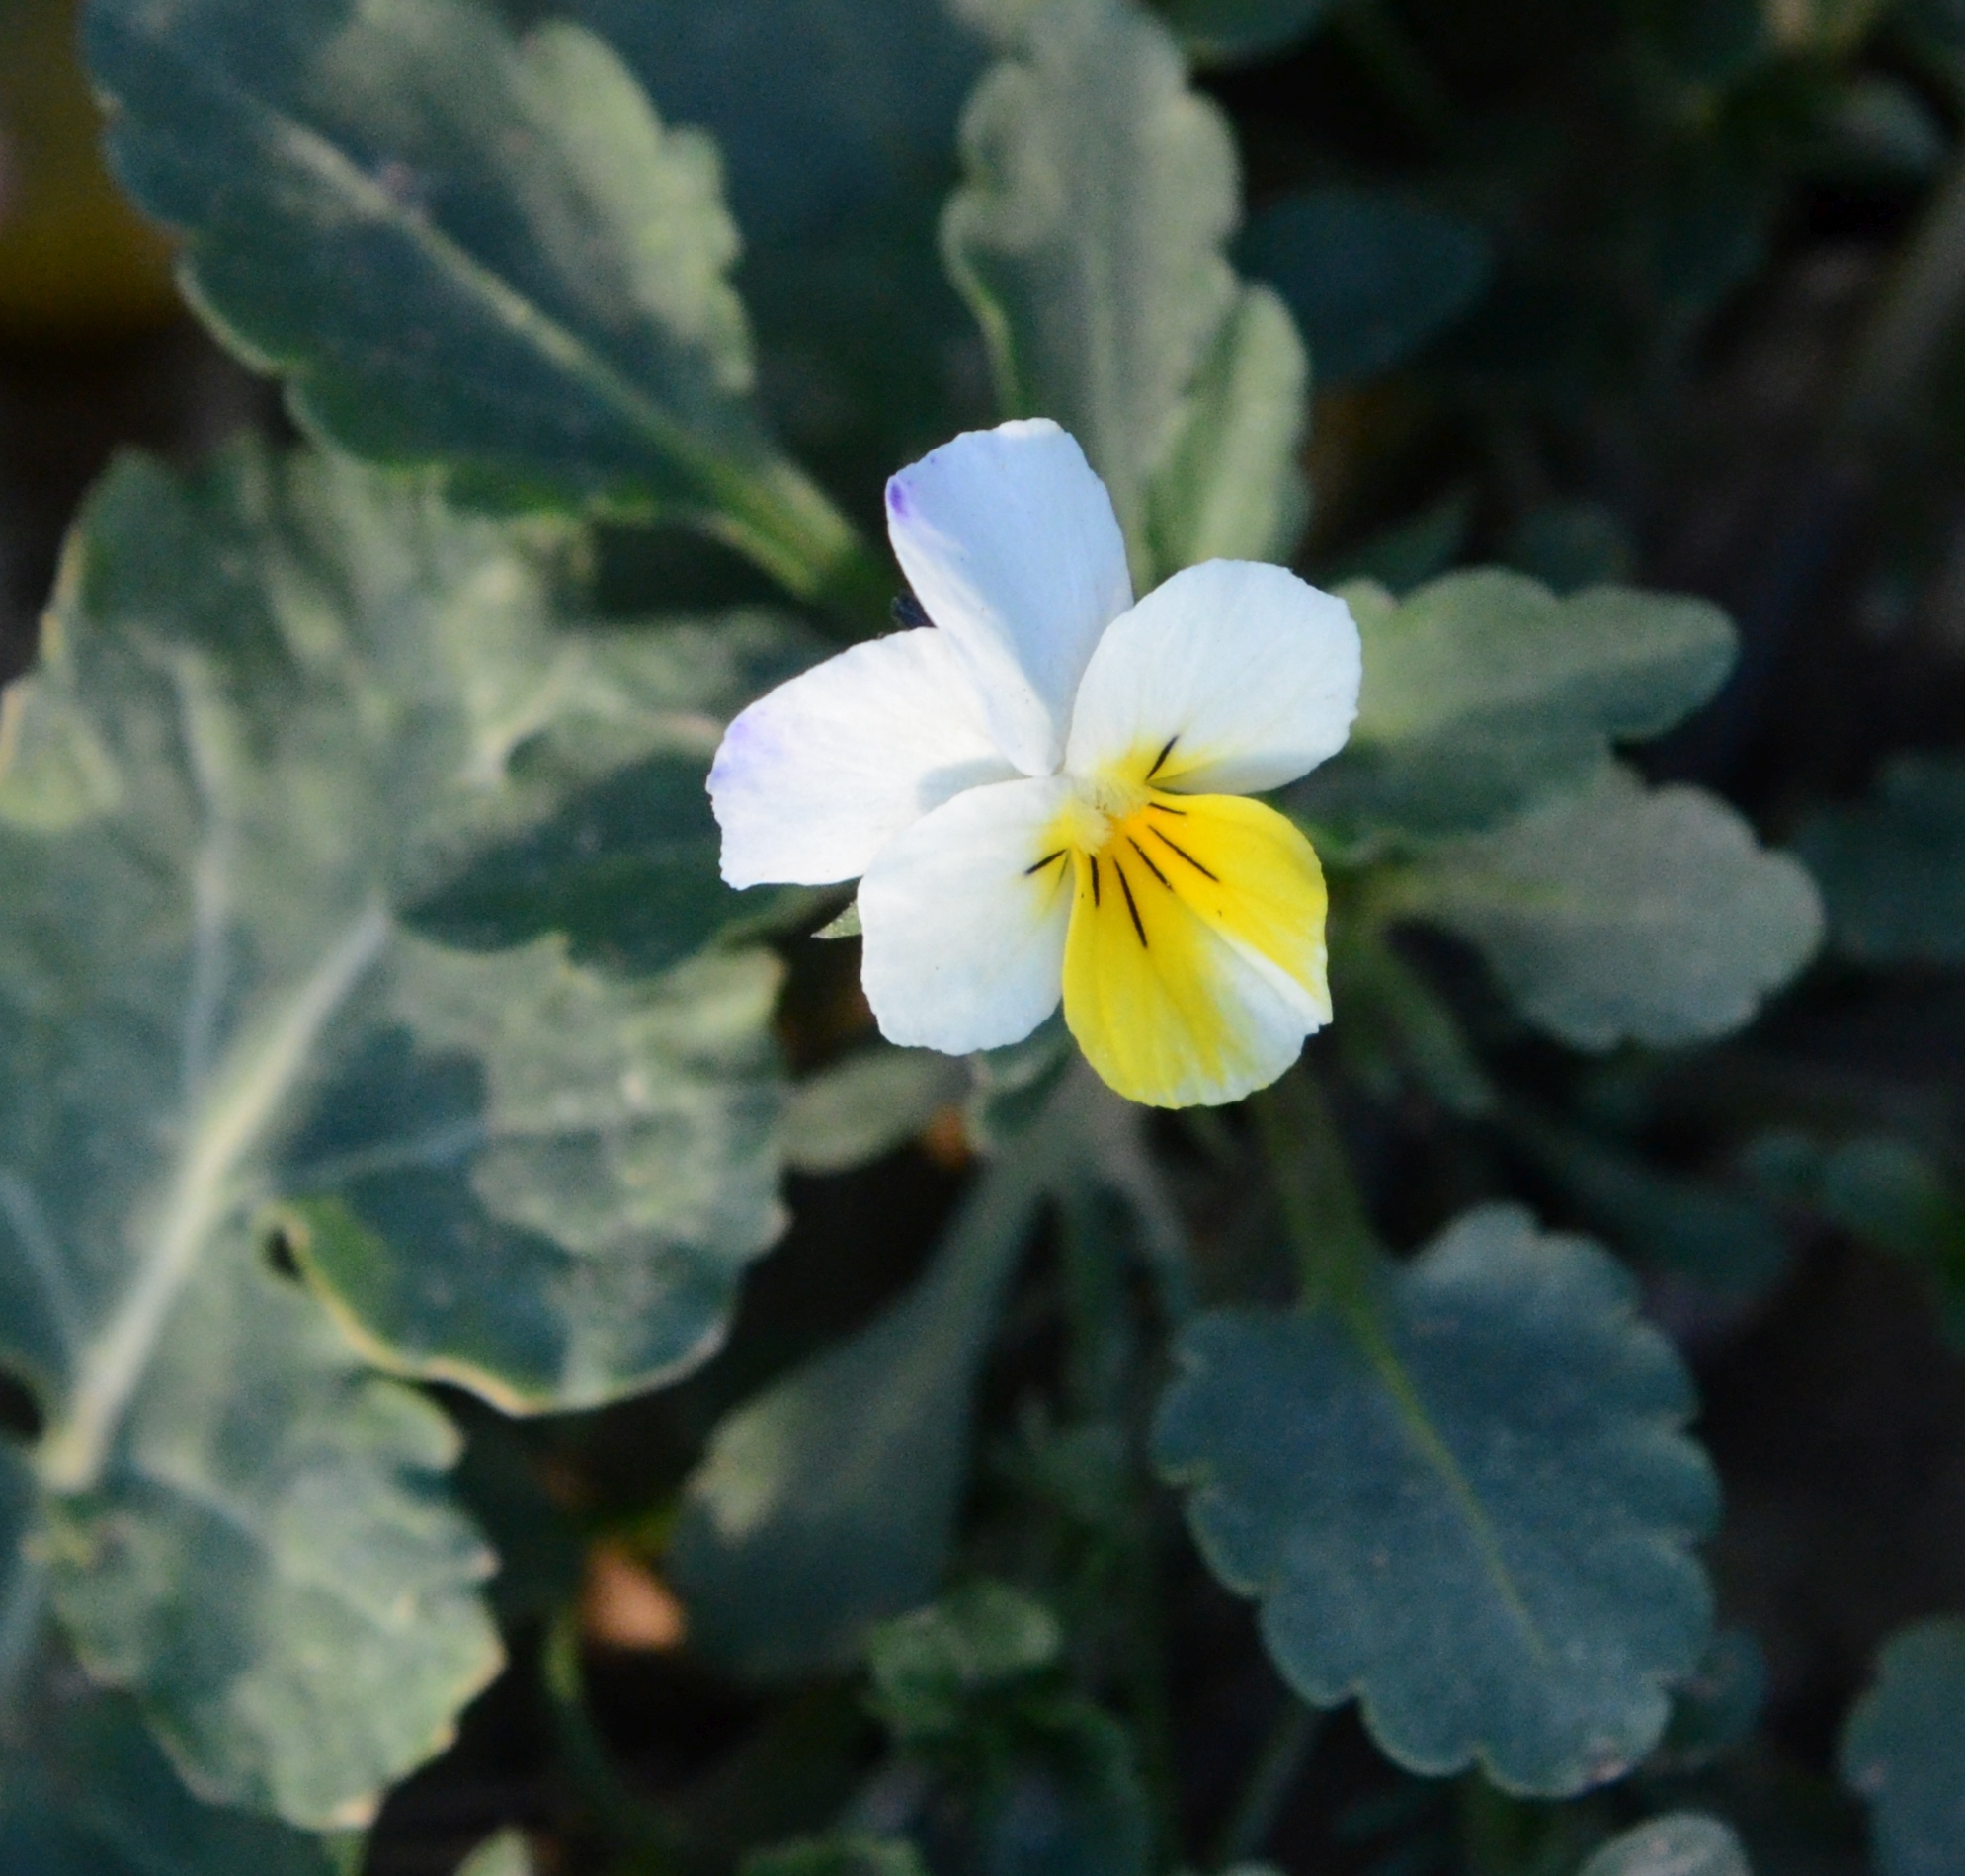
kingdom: Plantae
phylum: Tracheophyta
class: Magnoliopsida
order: Malpighiales
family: Violaceae
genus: Viola
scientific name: Viola arvensis
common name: Field pansy
